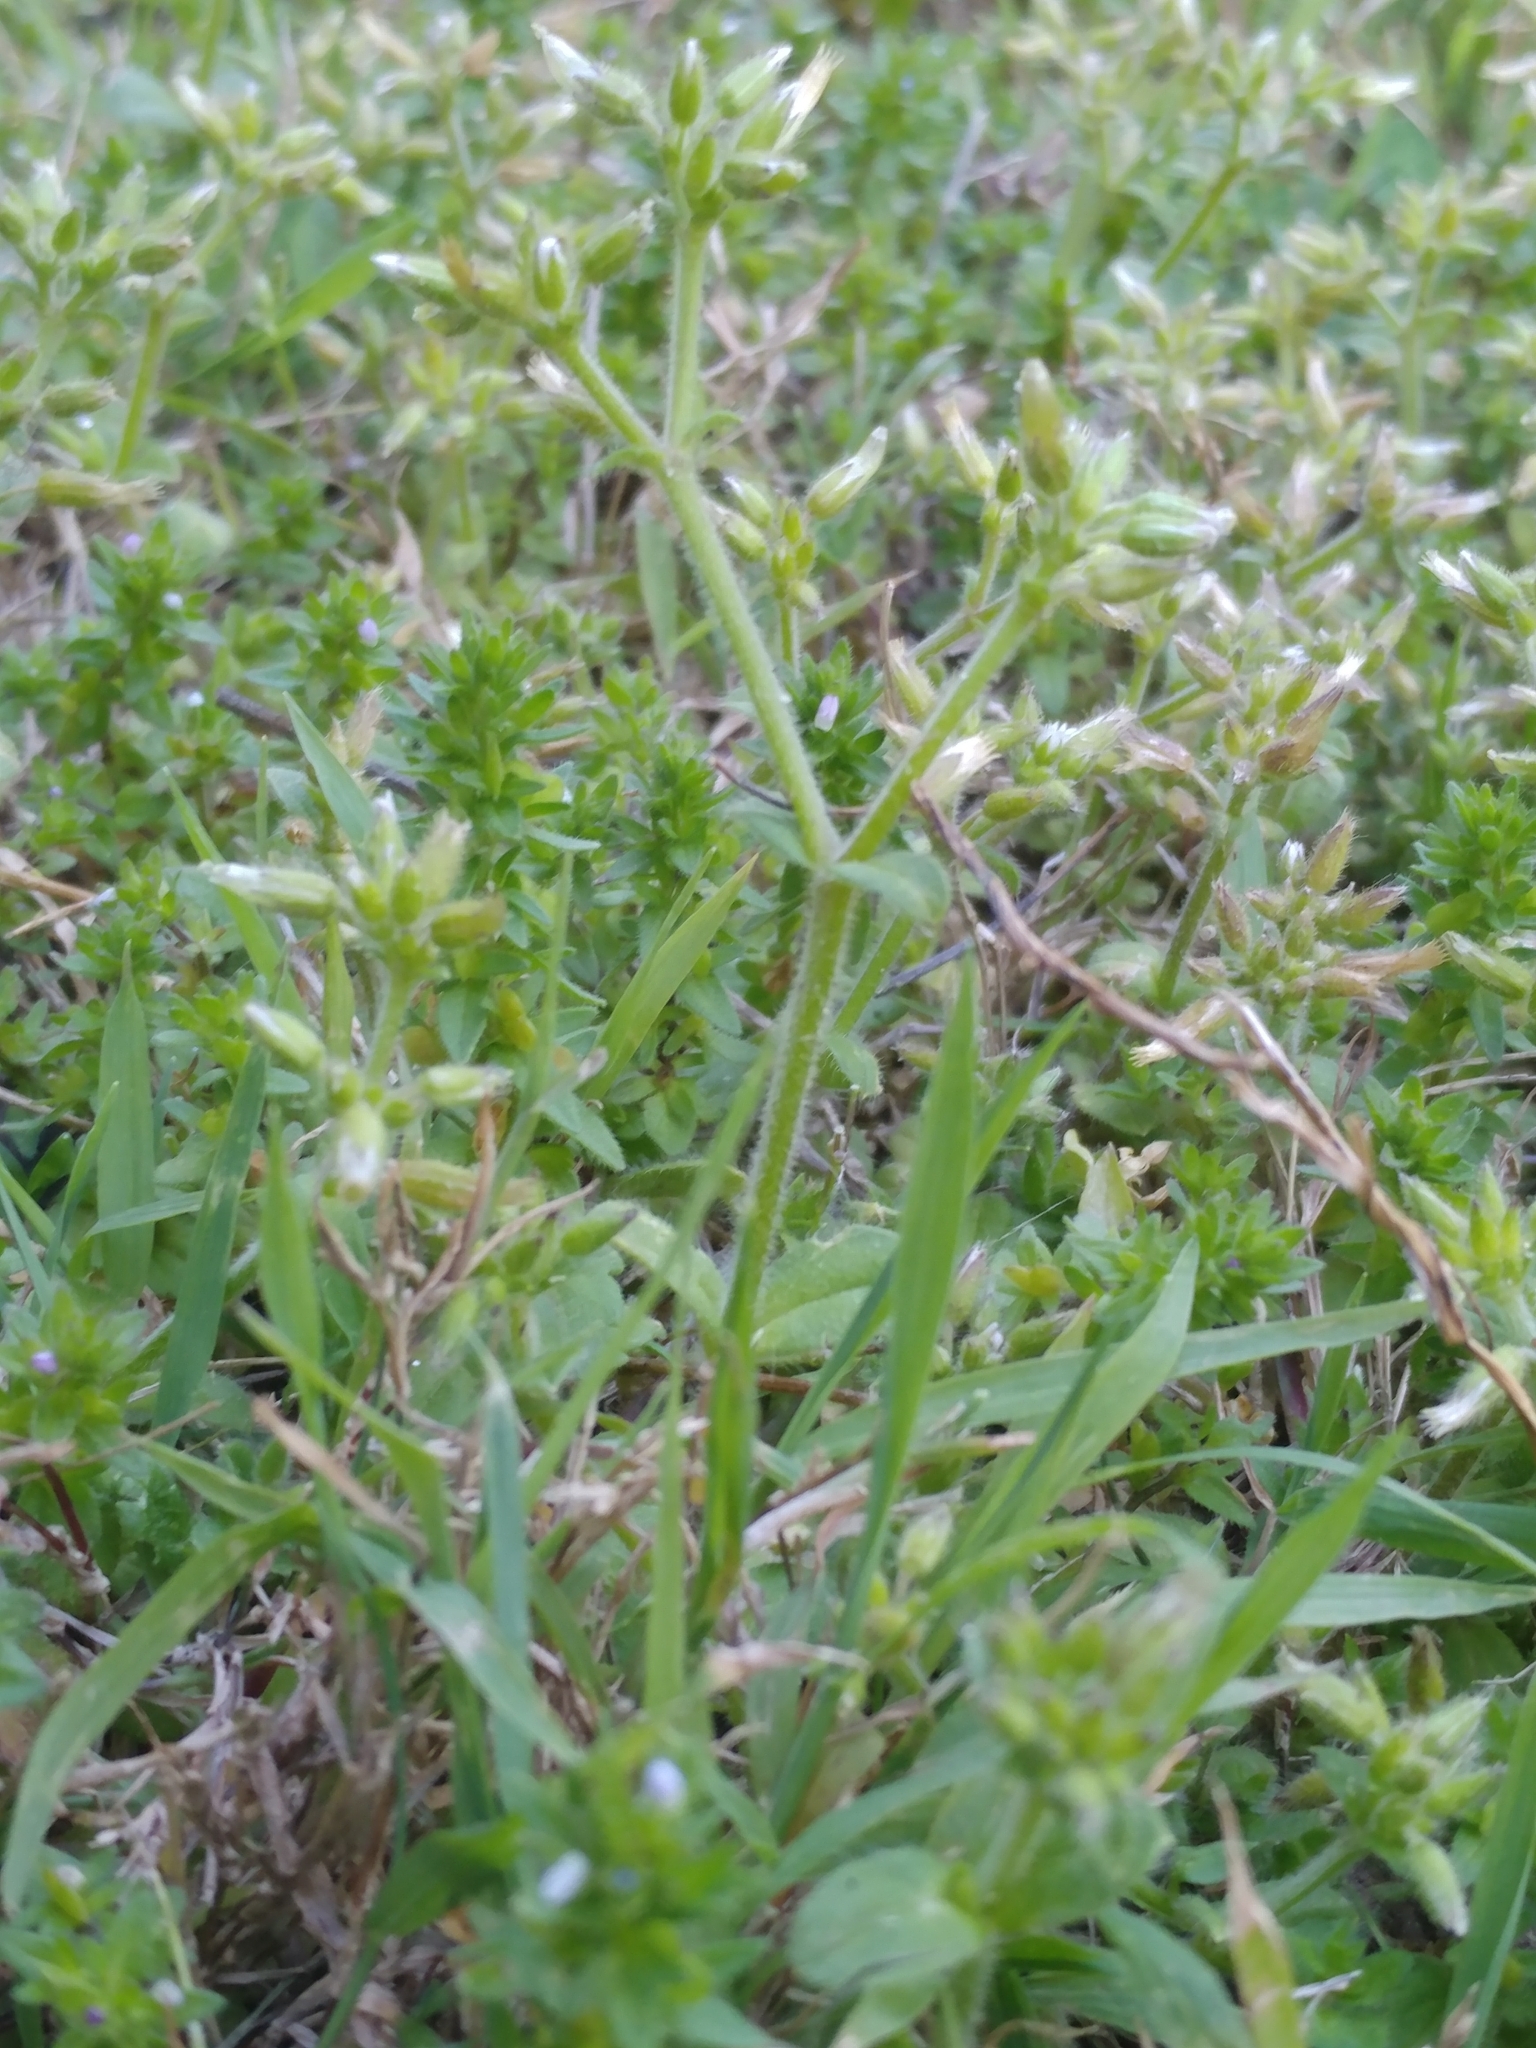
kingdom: Plantae
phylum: Tracheophyta
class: Magnoliopsida
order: Caryophyllales
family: Caryophyllaceae
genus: Cerastium
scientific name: Cerastium glomeratum
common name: Sticky chickweed
